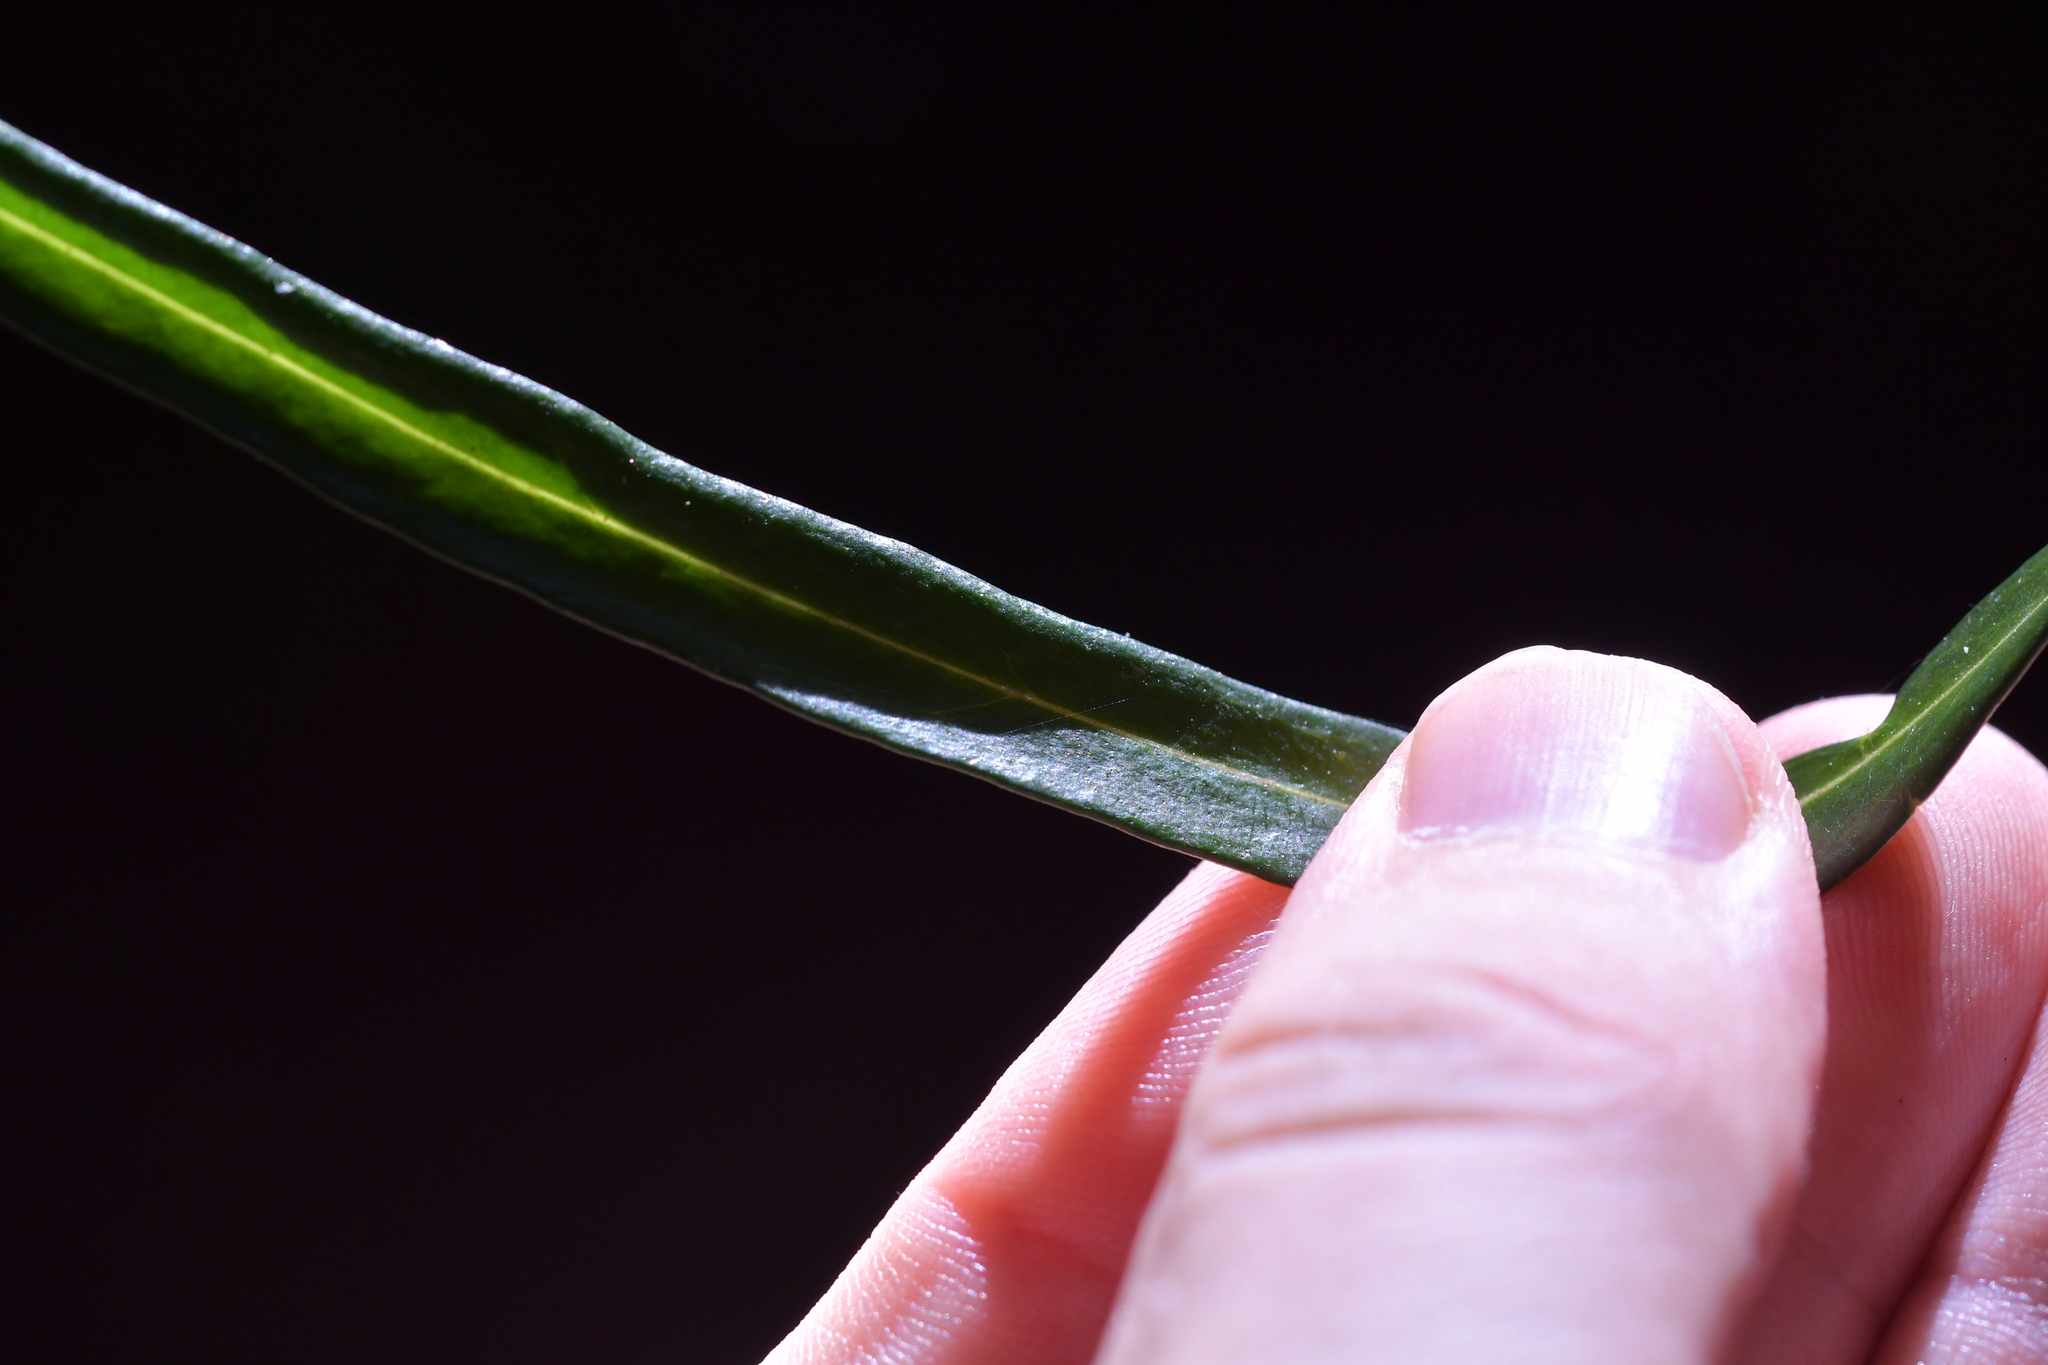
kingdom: Plantae
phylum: Tracheophyta
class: Magnoliopsida
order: Santalales
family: Nanodeaceae
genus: Mida
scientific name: Mida salicifolia
